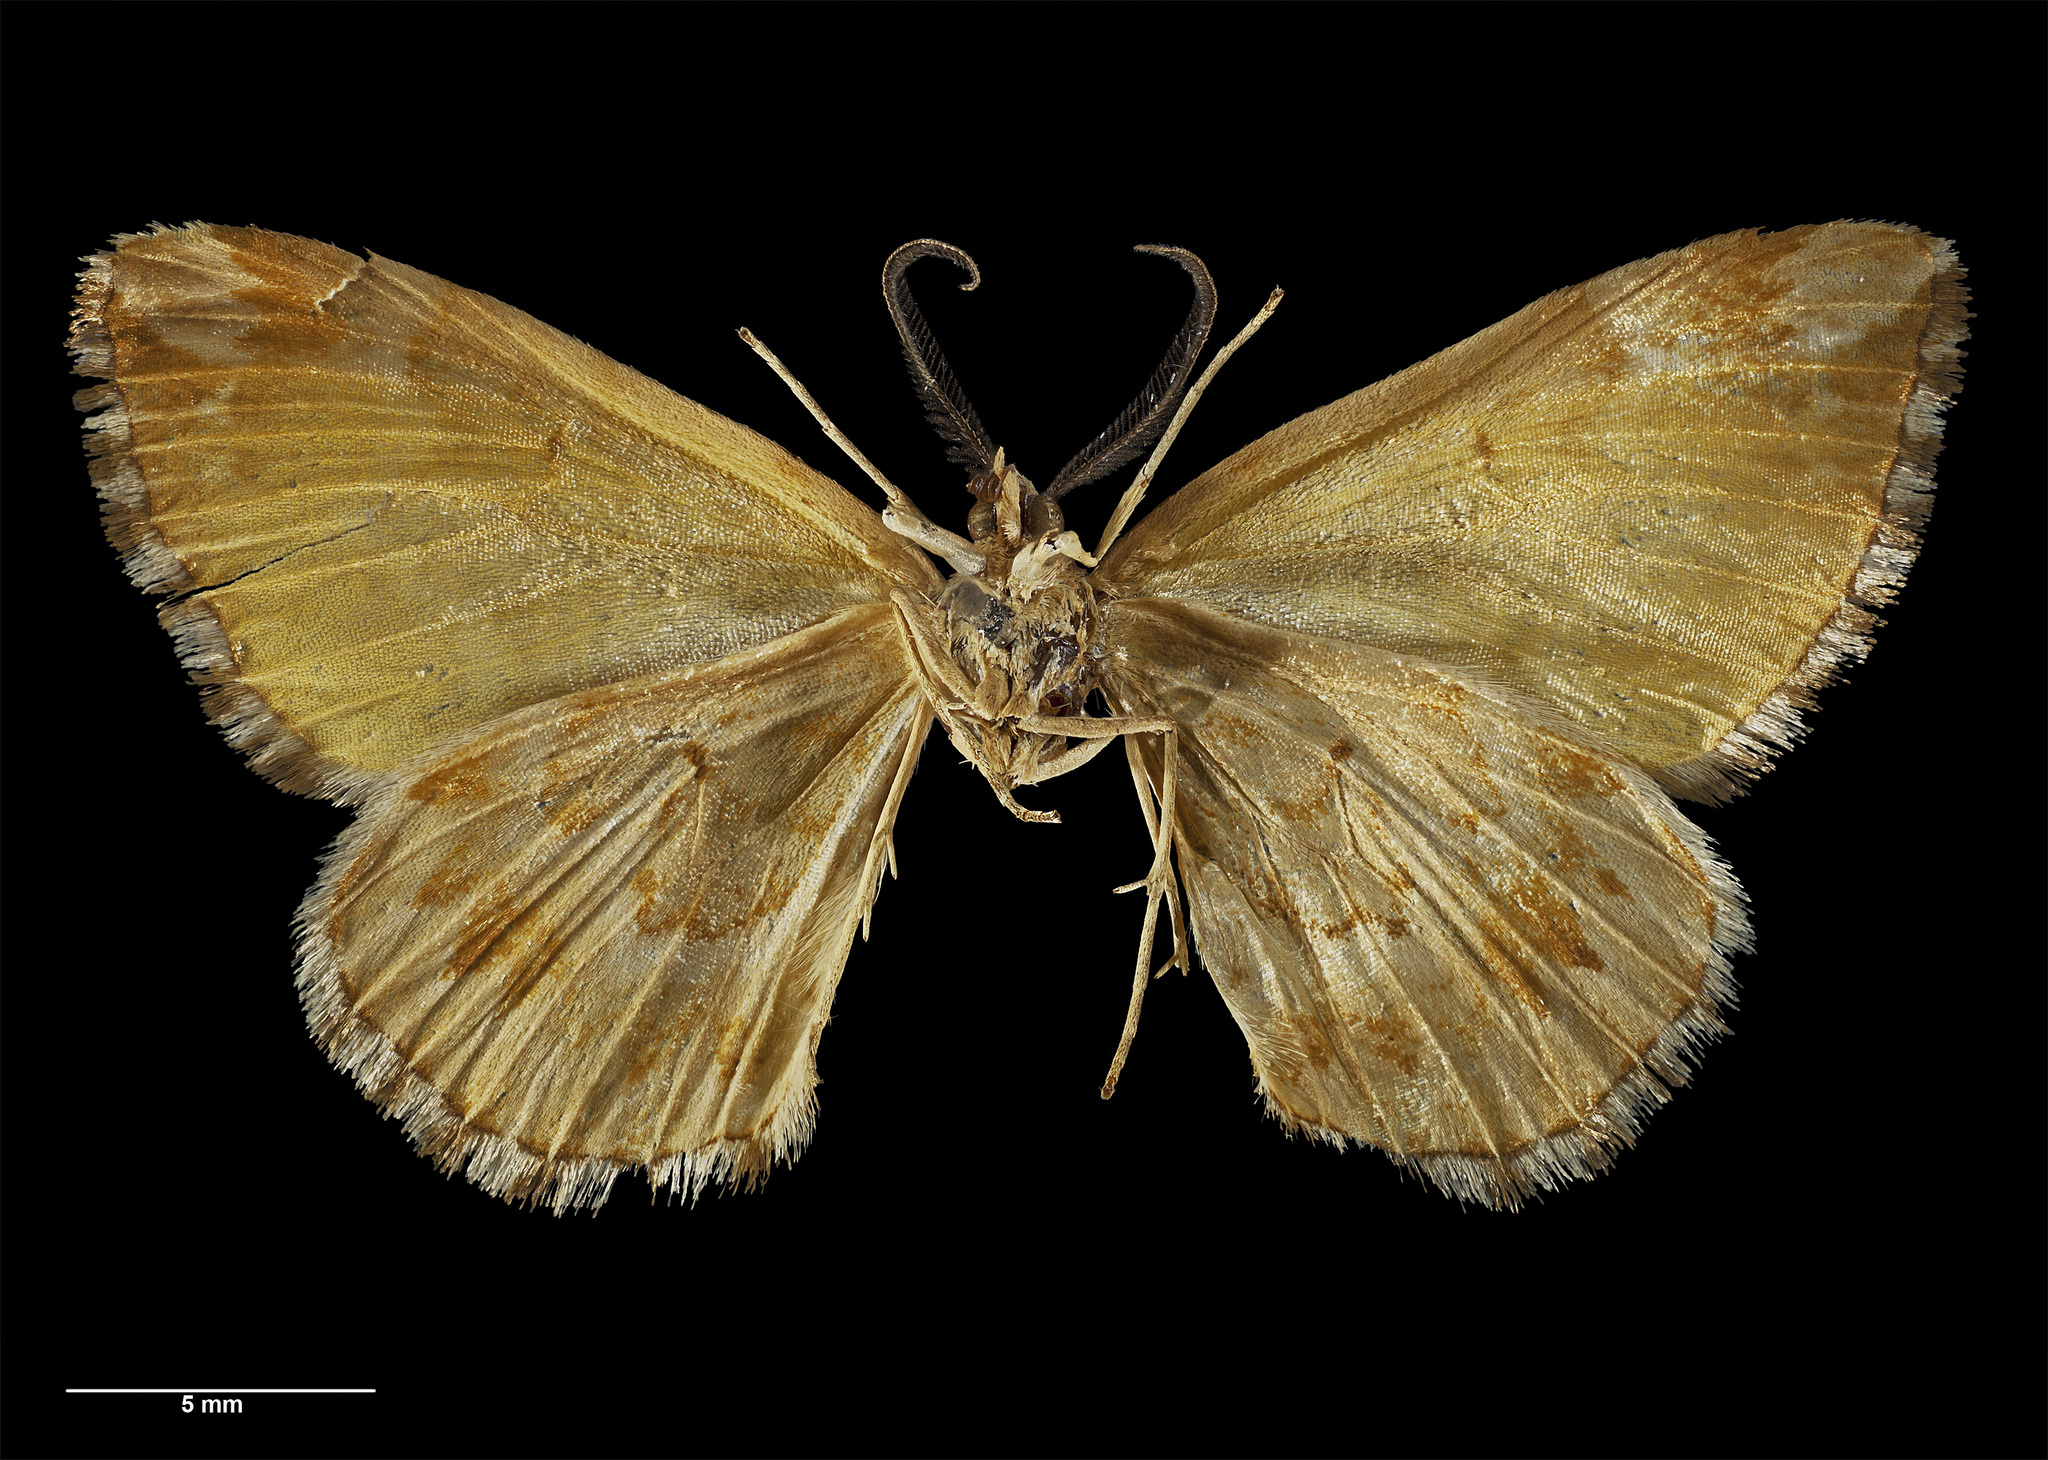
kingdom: Animalia
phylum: Arthropoda
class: Insecta
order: Lepidoptera
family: Geometridae
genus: Asaphodes
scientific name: Asaphodes citroena
